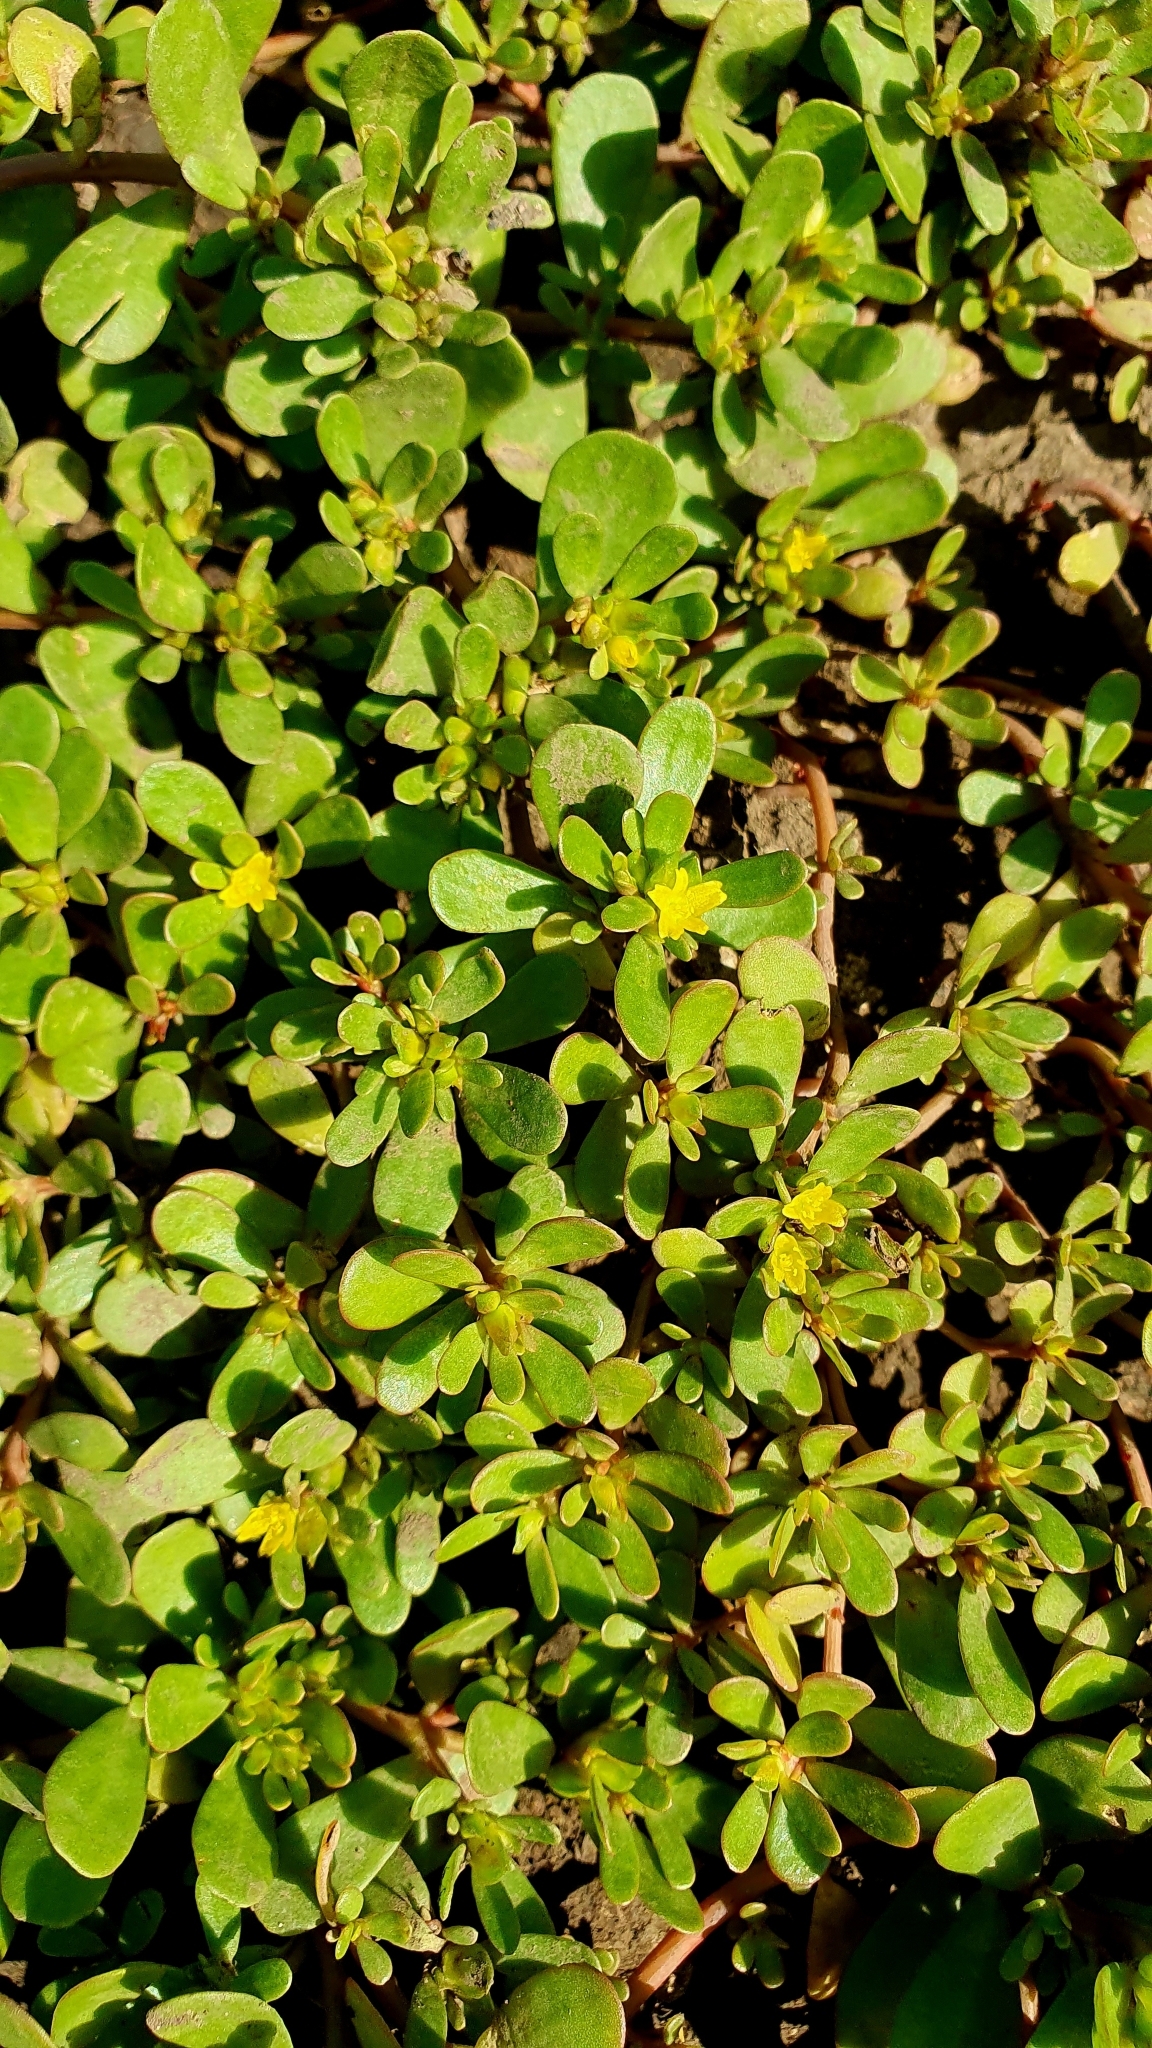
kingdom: Plantae
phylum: Tracheophyta
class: Magnoliopsida
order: Caryophyllales
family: Portulacaceae
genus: Portulaca
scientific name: Portulaca oleracea
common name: Common purslane
